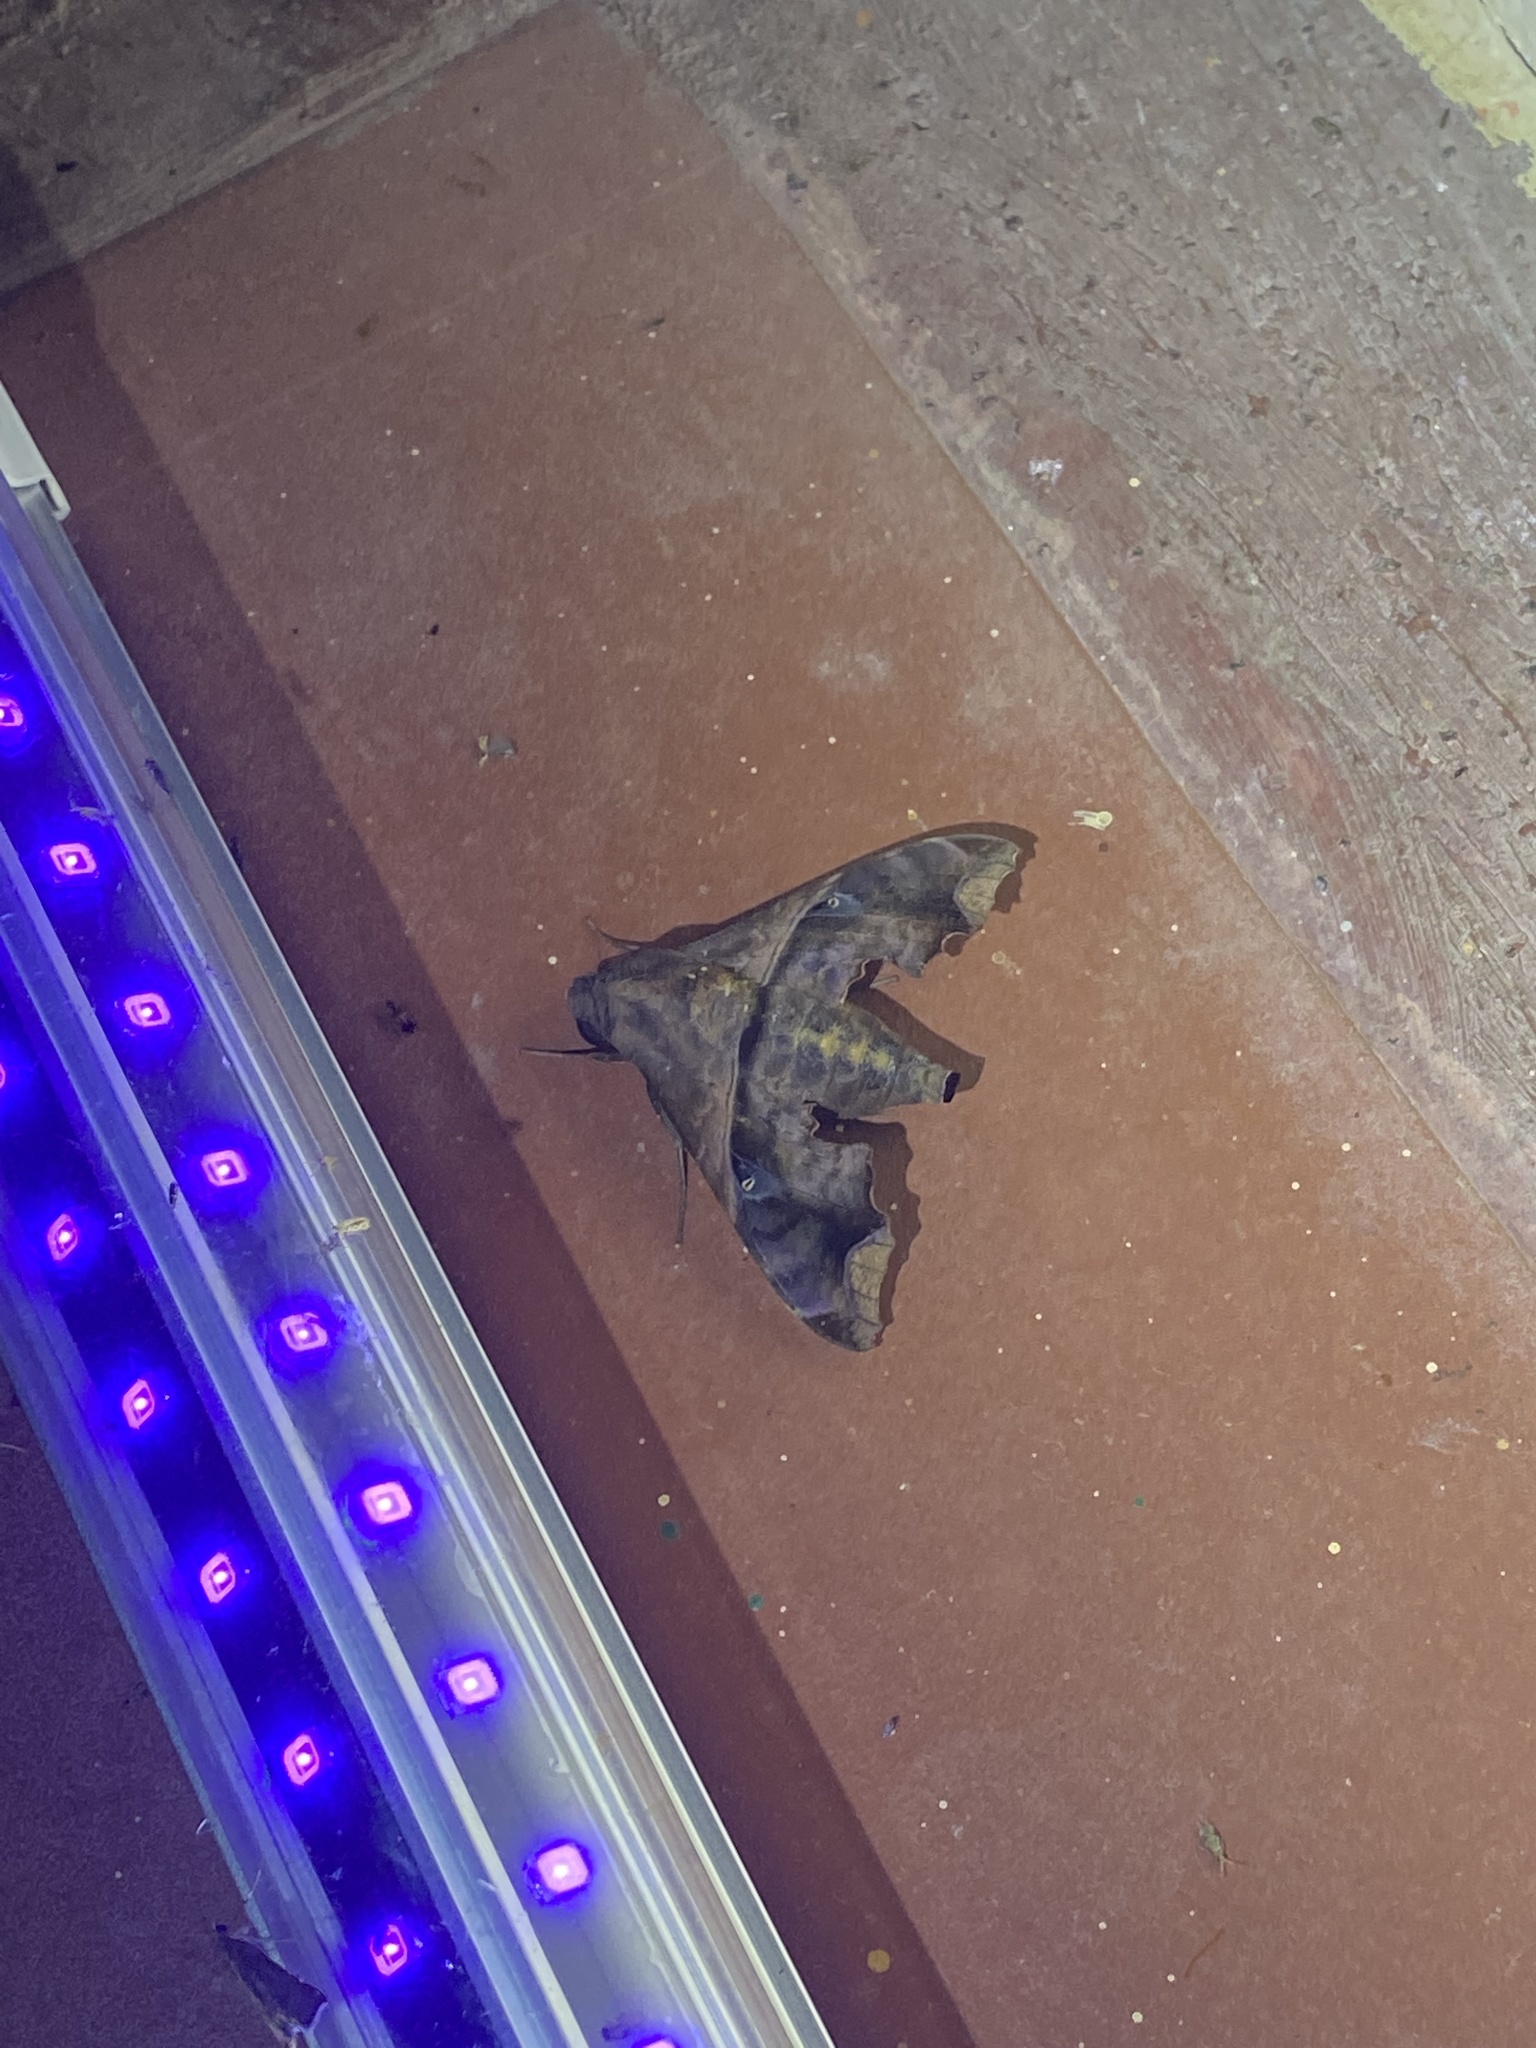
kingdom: Animalia
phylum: Arthropoda
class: Insecta
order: Lepidoptera
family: Sphingidae
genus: Enyo
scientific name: Enyo ocypete
